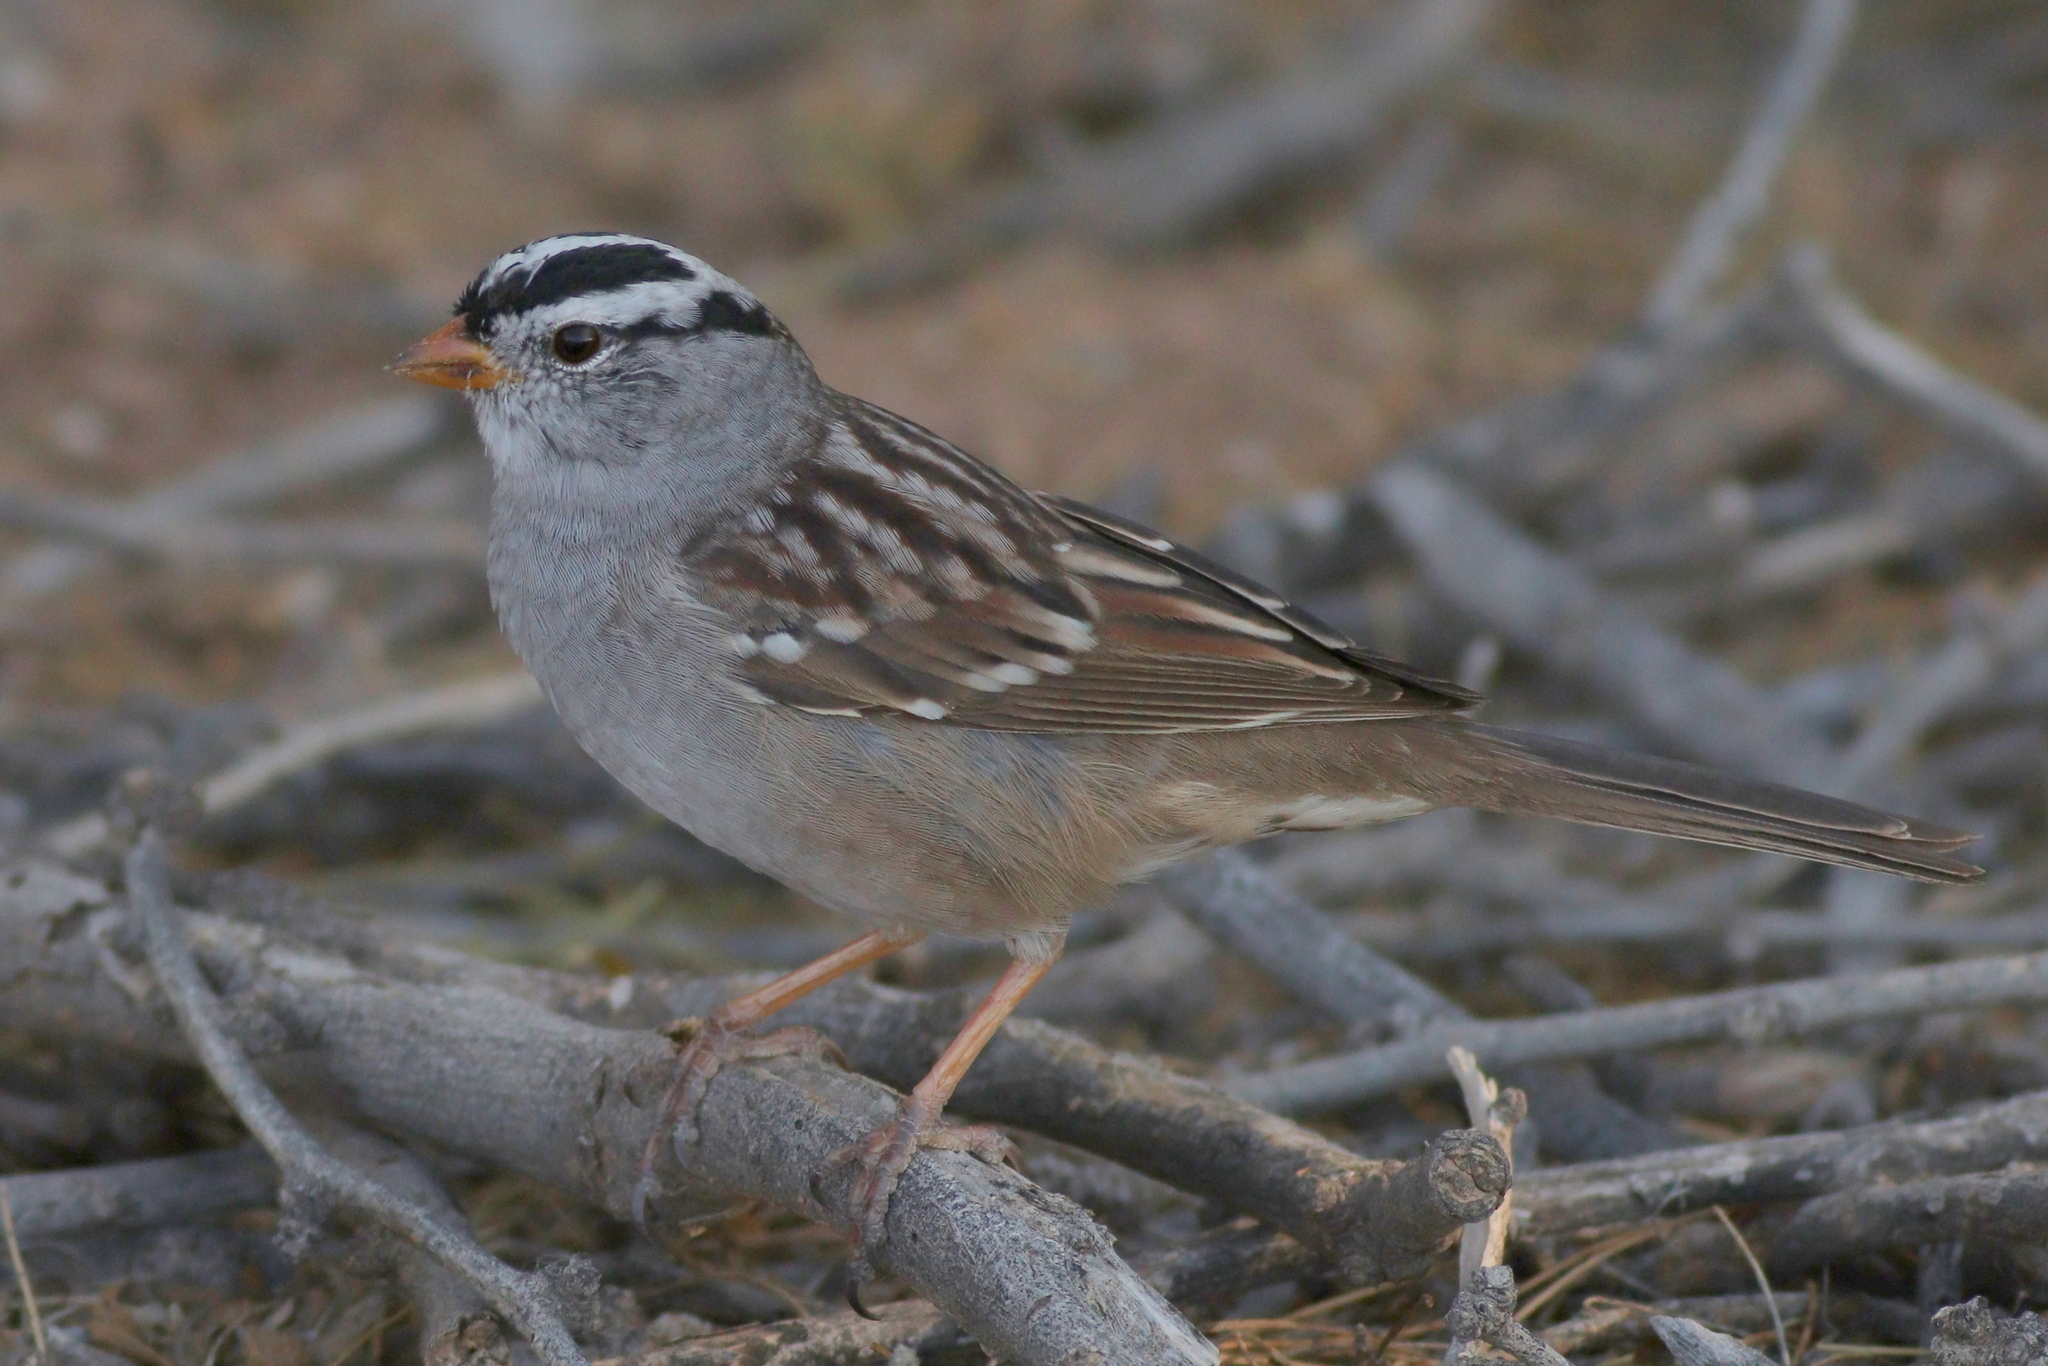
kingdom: Animalia
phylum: Chordata
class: Aves
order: Passeriformes
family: Passerellidae
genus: Zonotrichia
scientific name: Zonotrichia leucophrys
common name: White-crowned sparrow
